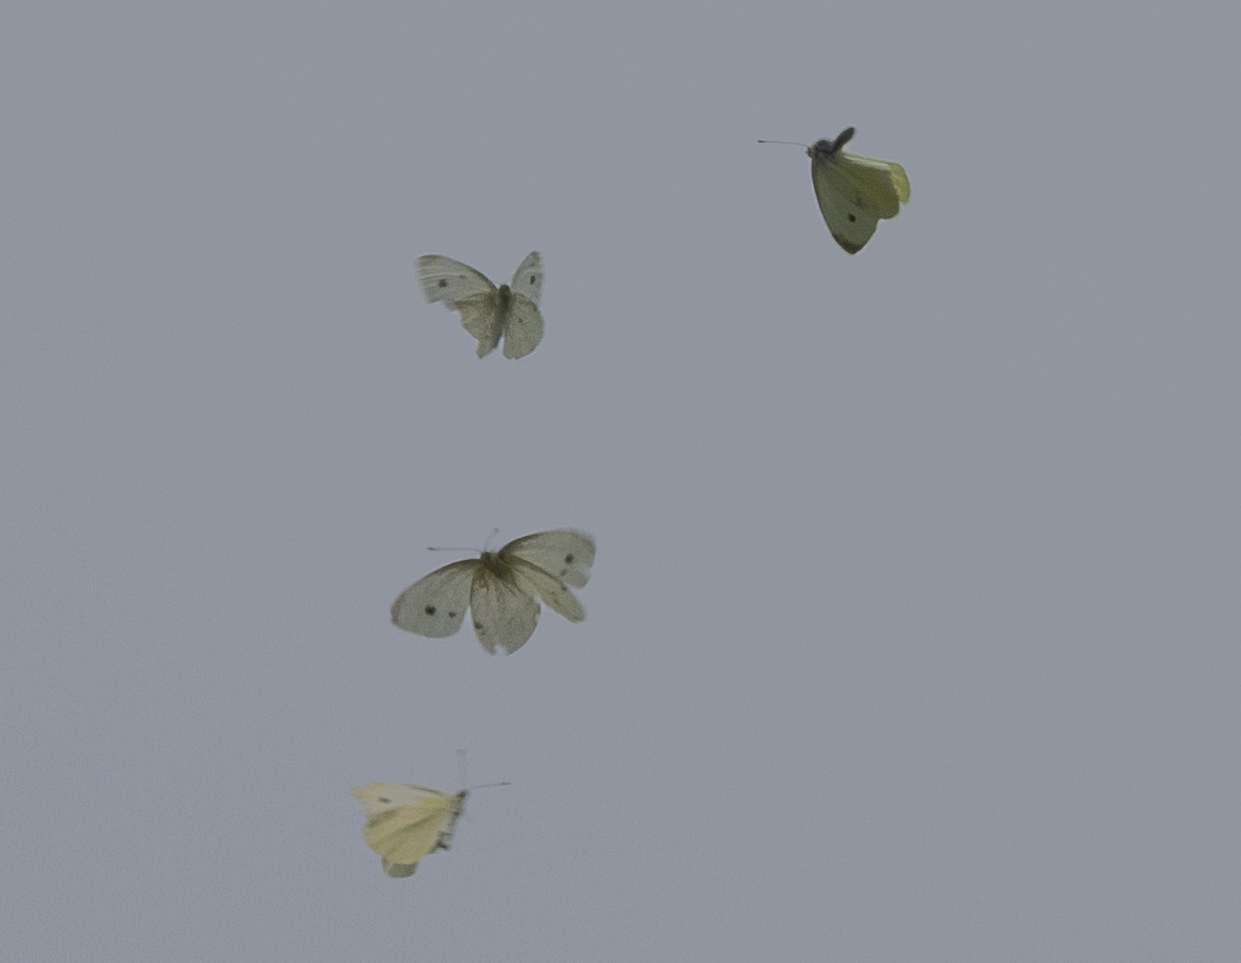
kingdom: Animalia
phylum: Arthropoda
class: Insecta
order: Lepidoptera
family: Pieridae
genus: Pieris
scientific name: Pieris rapae
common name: Small white
